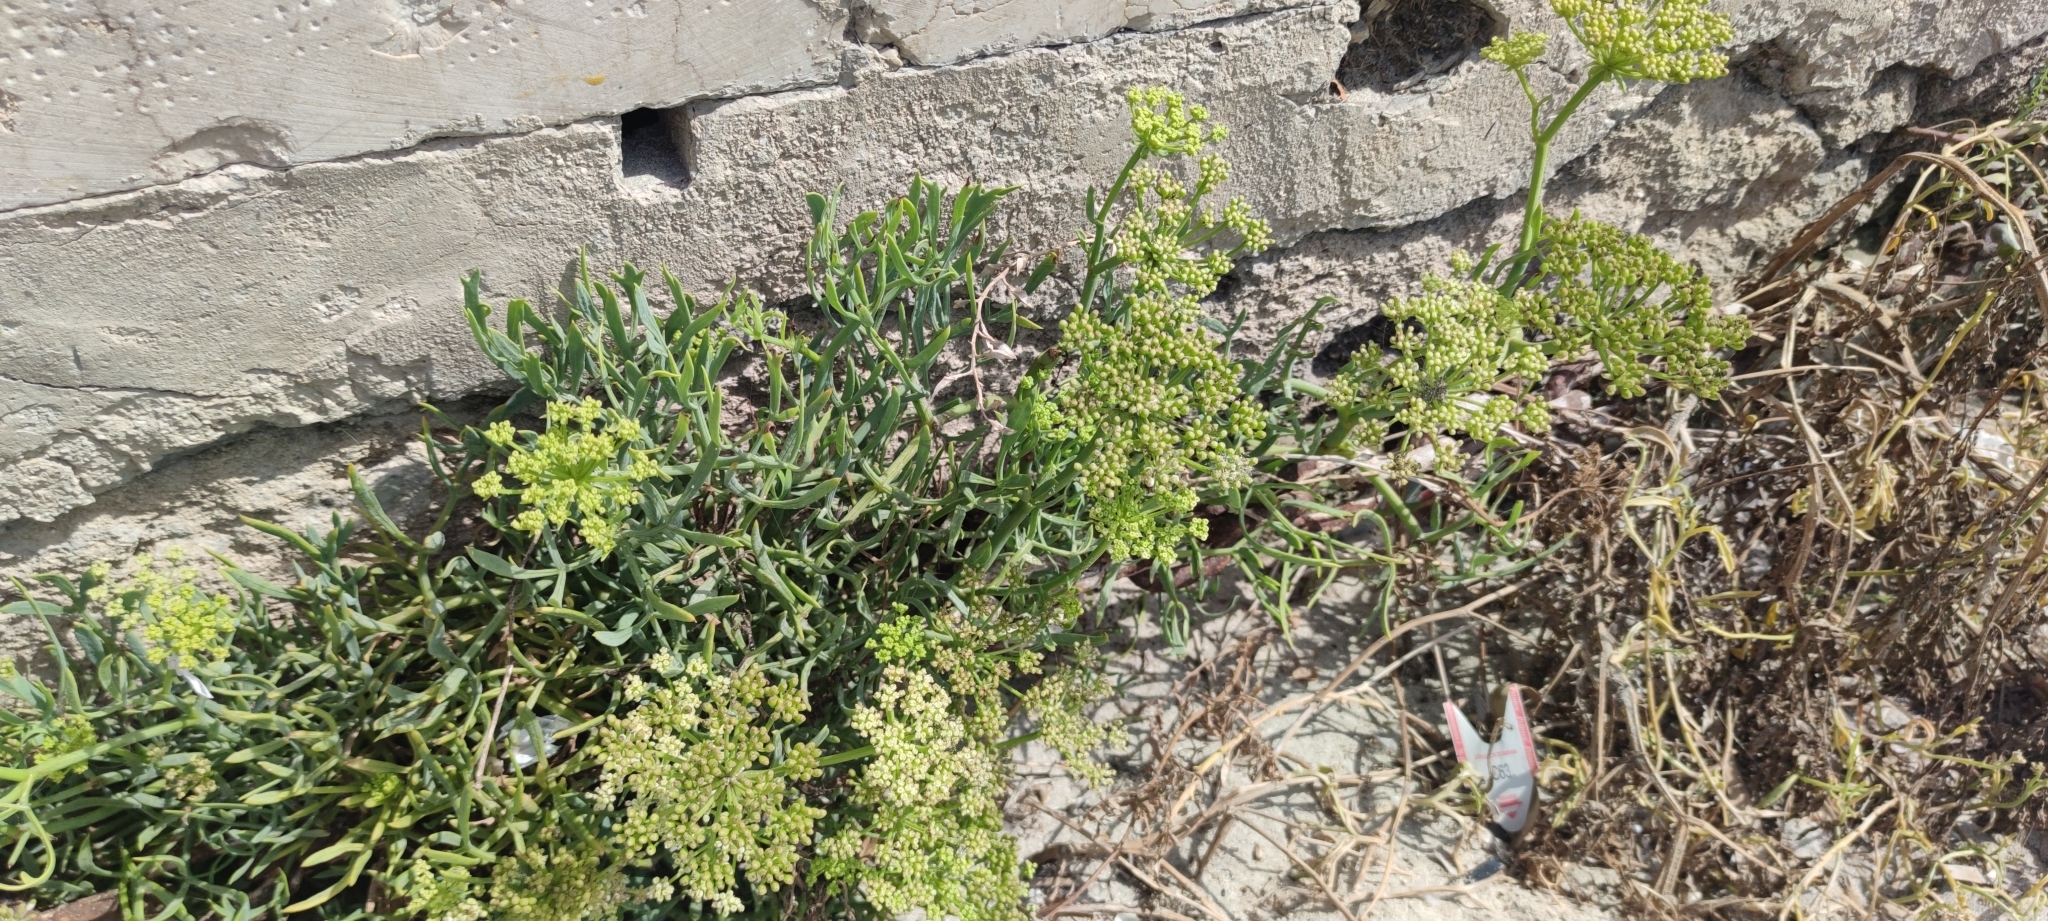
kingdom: Plantae
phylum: Tracheophyta
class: Magnoliopsida
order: Apiales
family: Apiaceae
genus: Crithmum
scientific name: Crithmum maritimum
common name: Rock samphire
